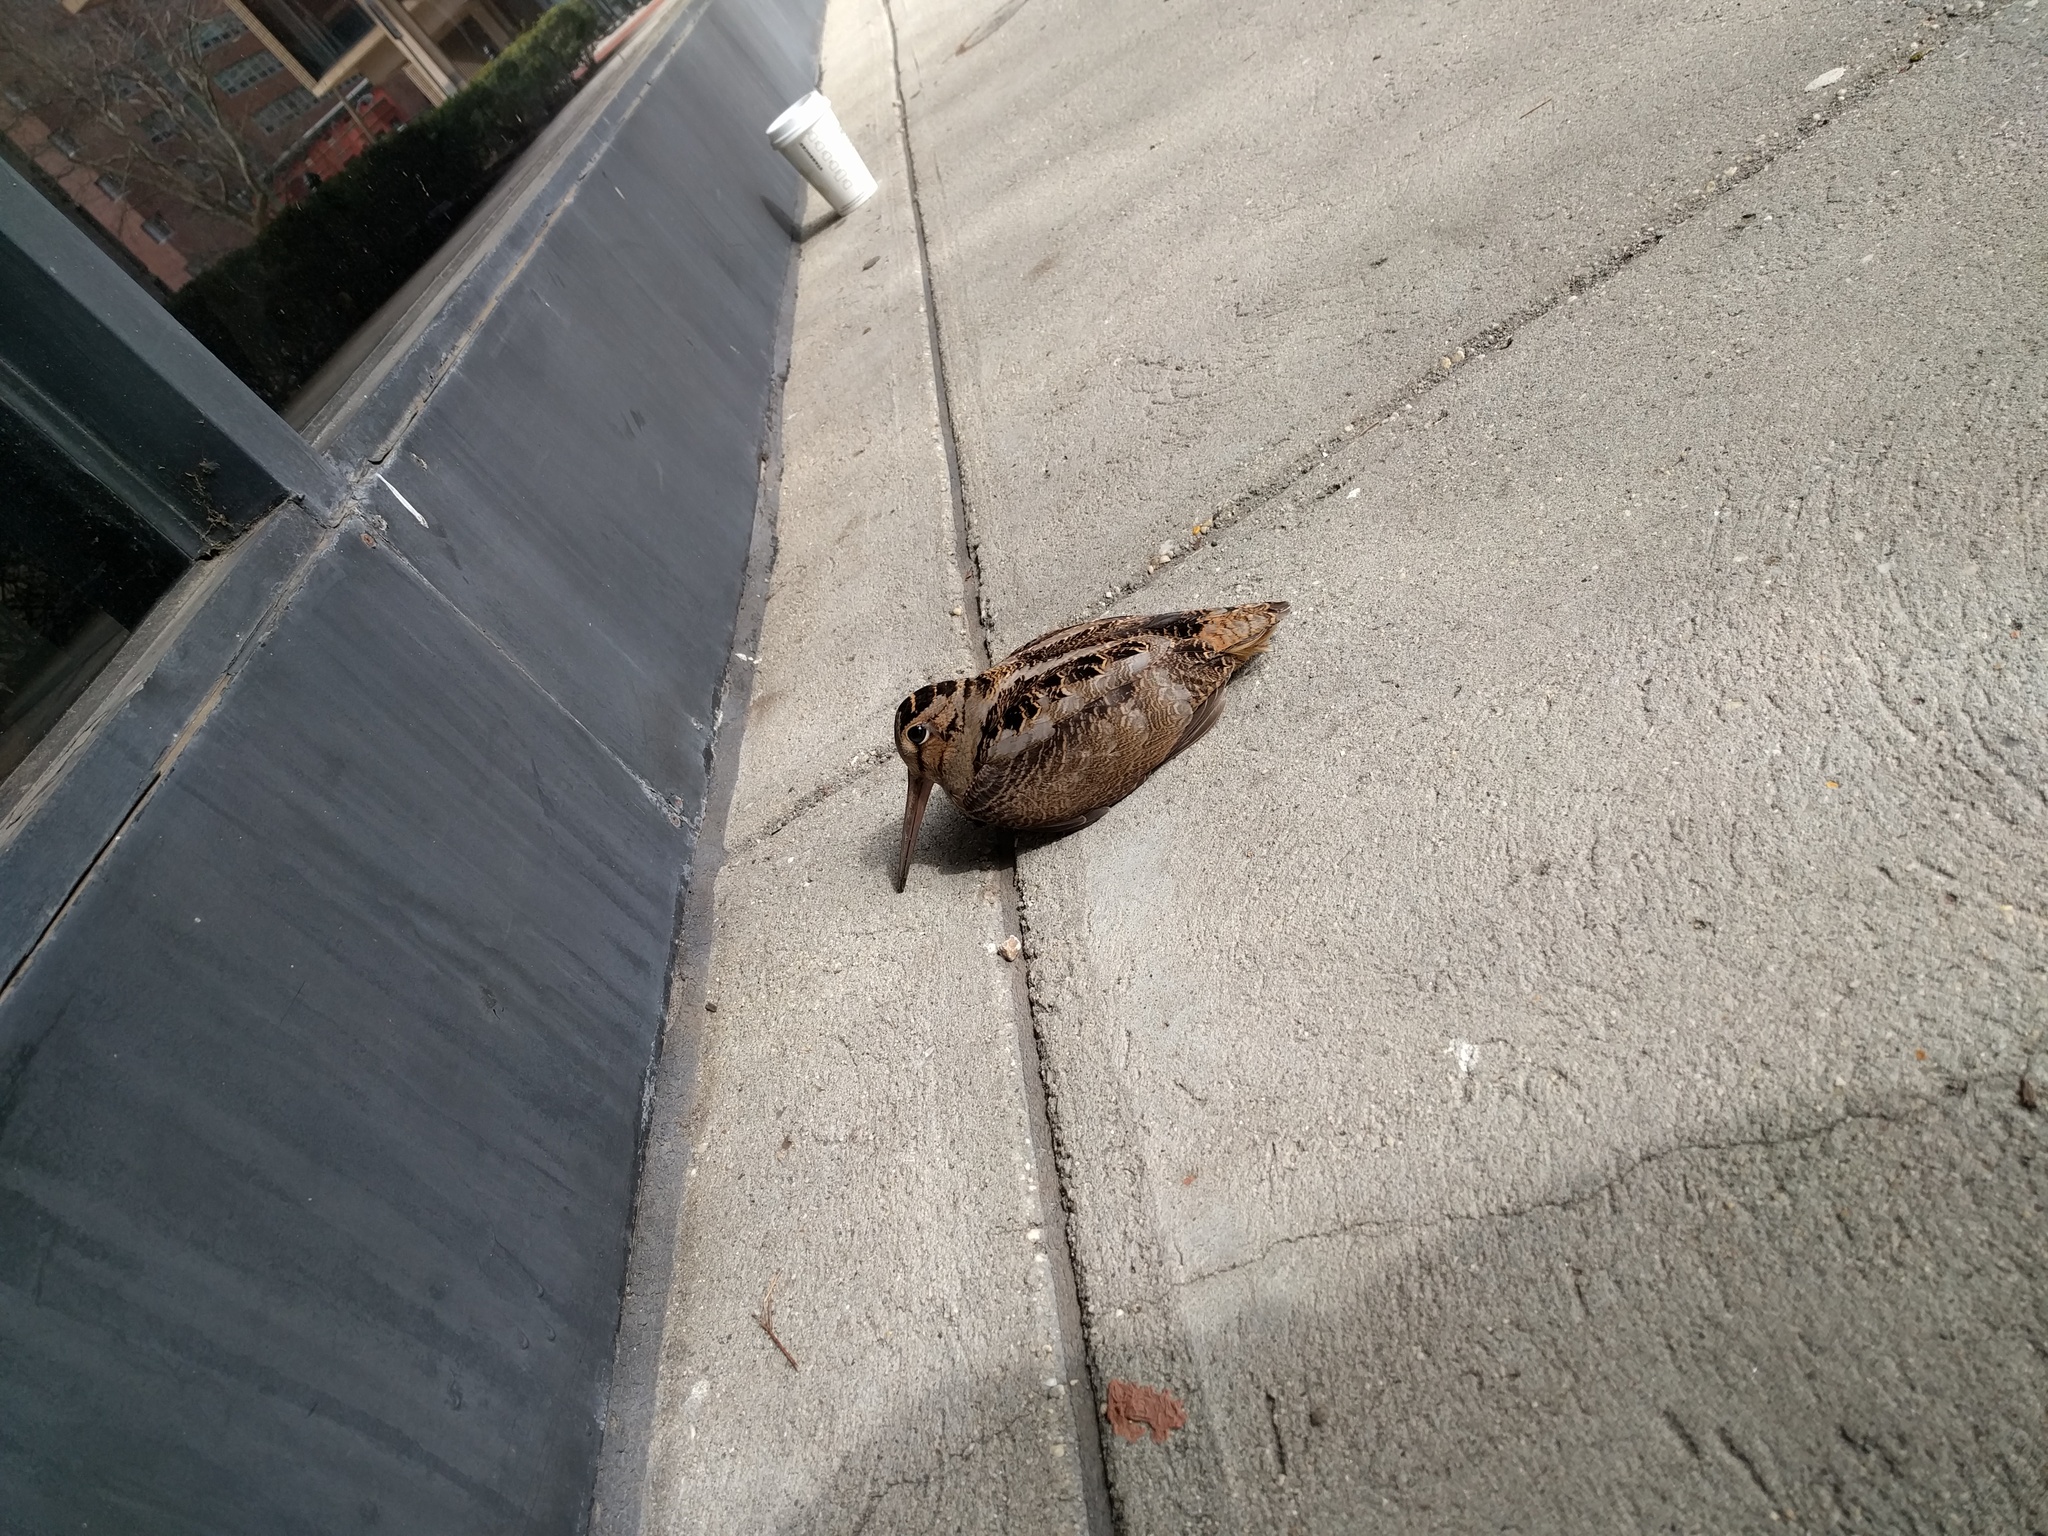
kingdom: Animalia
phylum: Chordata
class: Aves
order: Charadriiformes
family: Scolopacidae
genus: Scolopax
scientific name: Scolopax minor
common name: American woodcock
